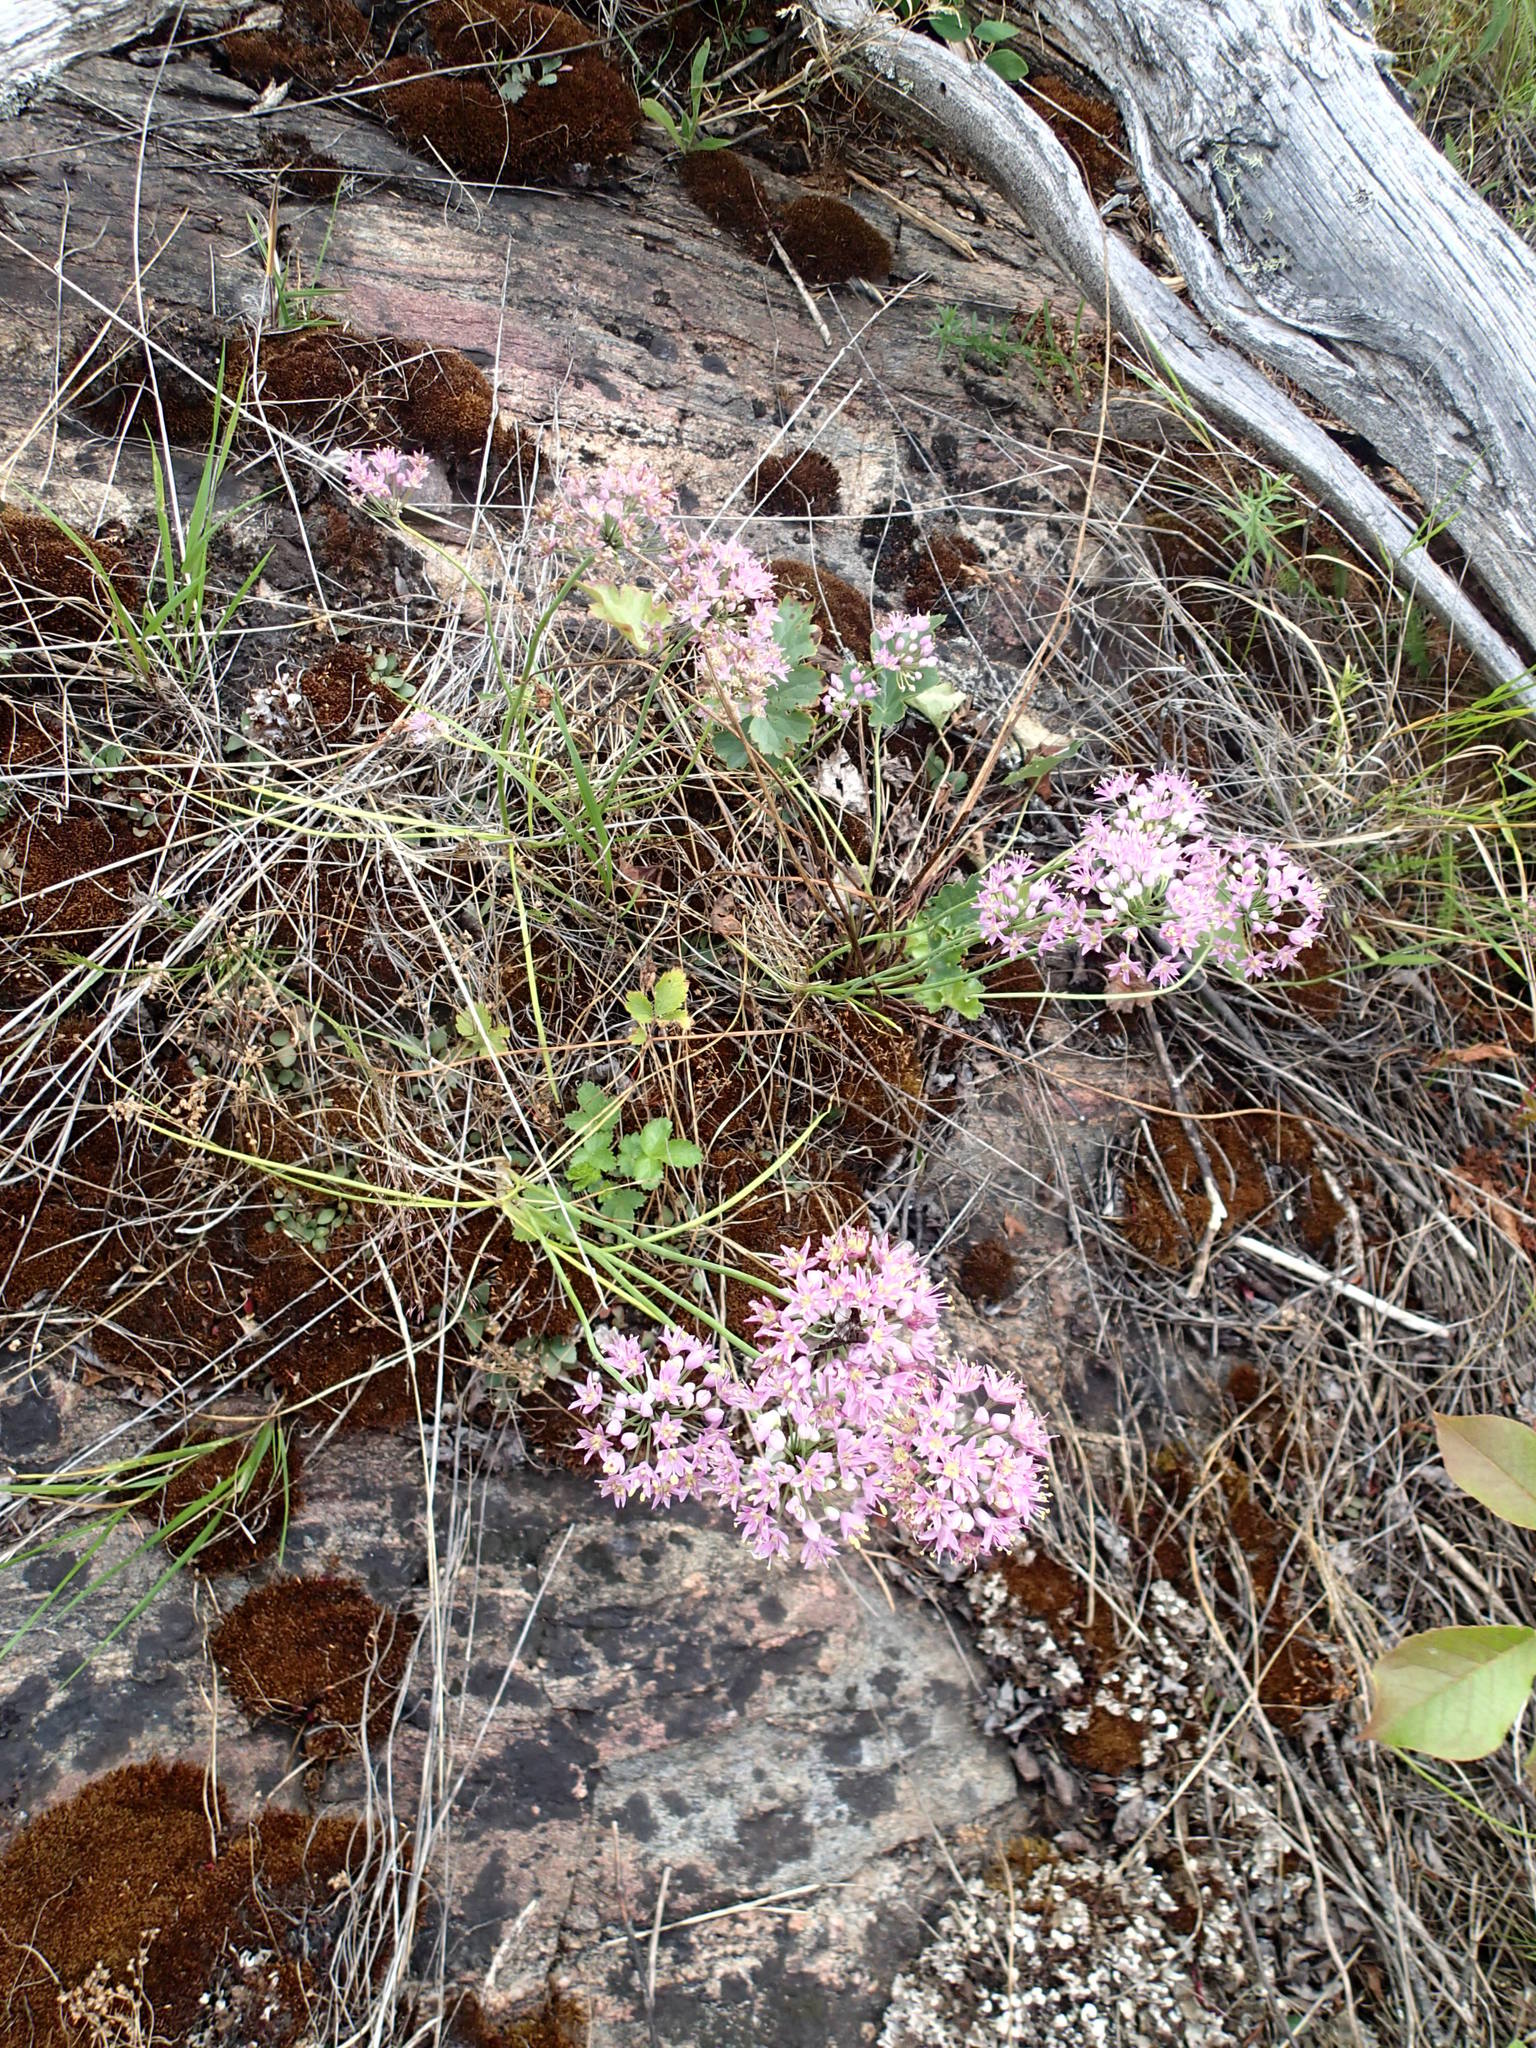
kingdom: Plantae
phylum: Tracheophyta
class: Liliopsida
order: Asparagales
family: Amaryllidaceae
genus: Allium
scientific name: Allium stellatum
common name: Autumn onion
